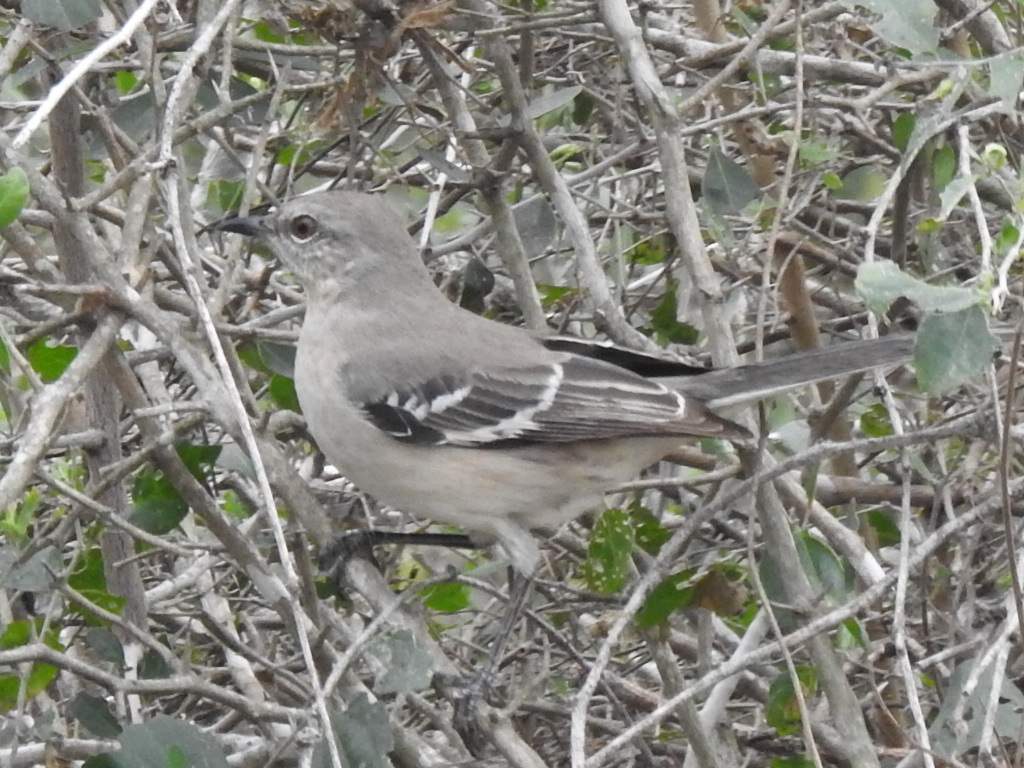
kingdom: Animalia
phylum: Chordata
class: Aves
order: Passeriformes
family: Mimidae
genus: Mimus
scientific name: Mimus polyglottos
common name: Northern mockingbird
